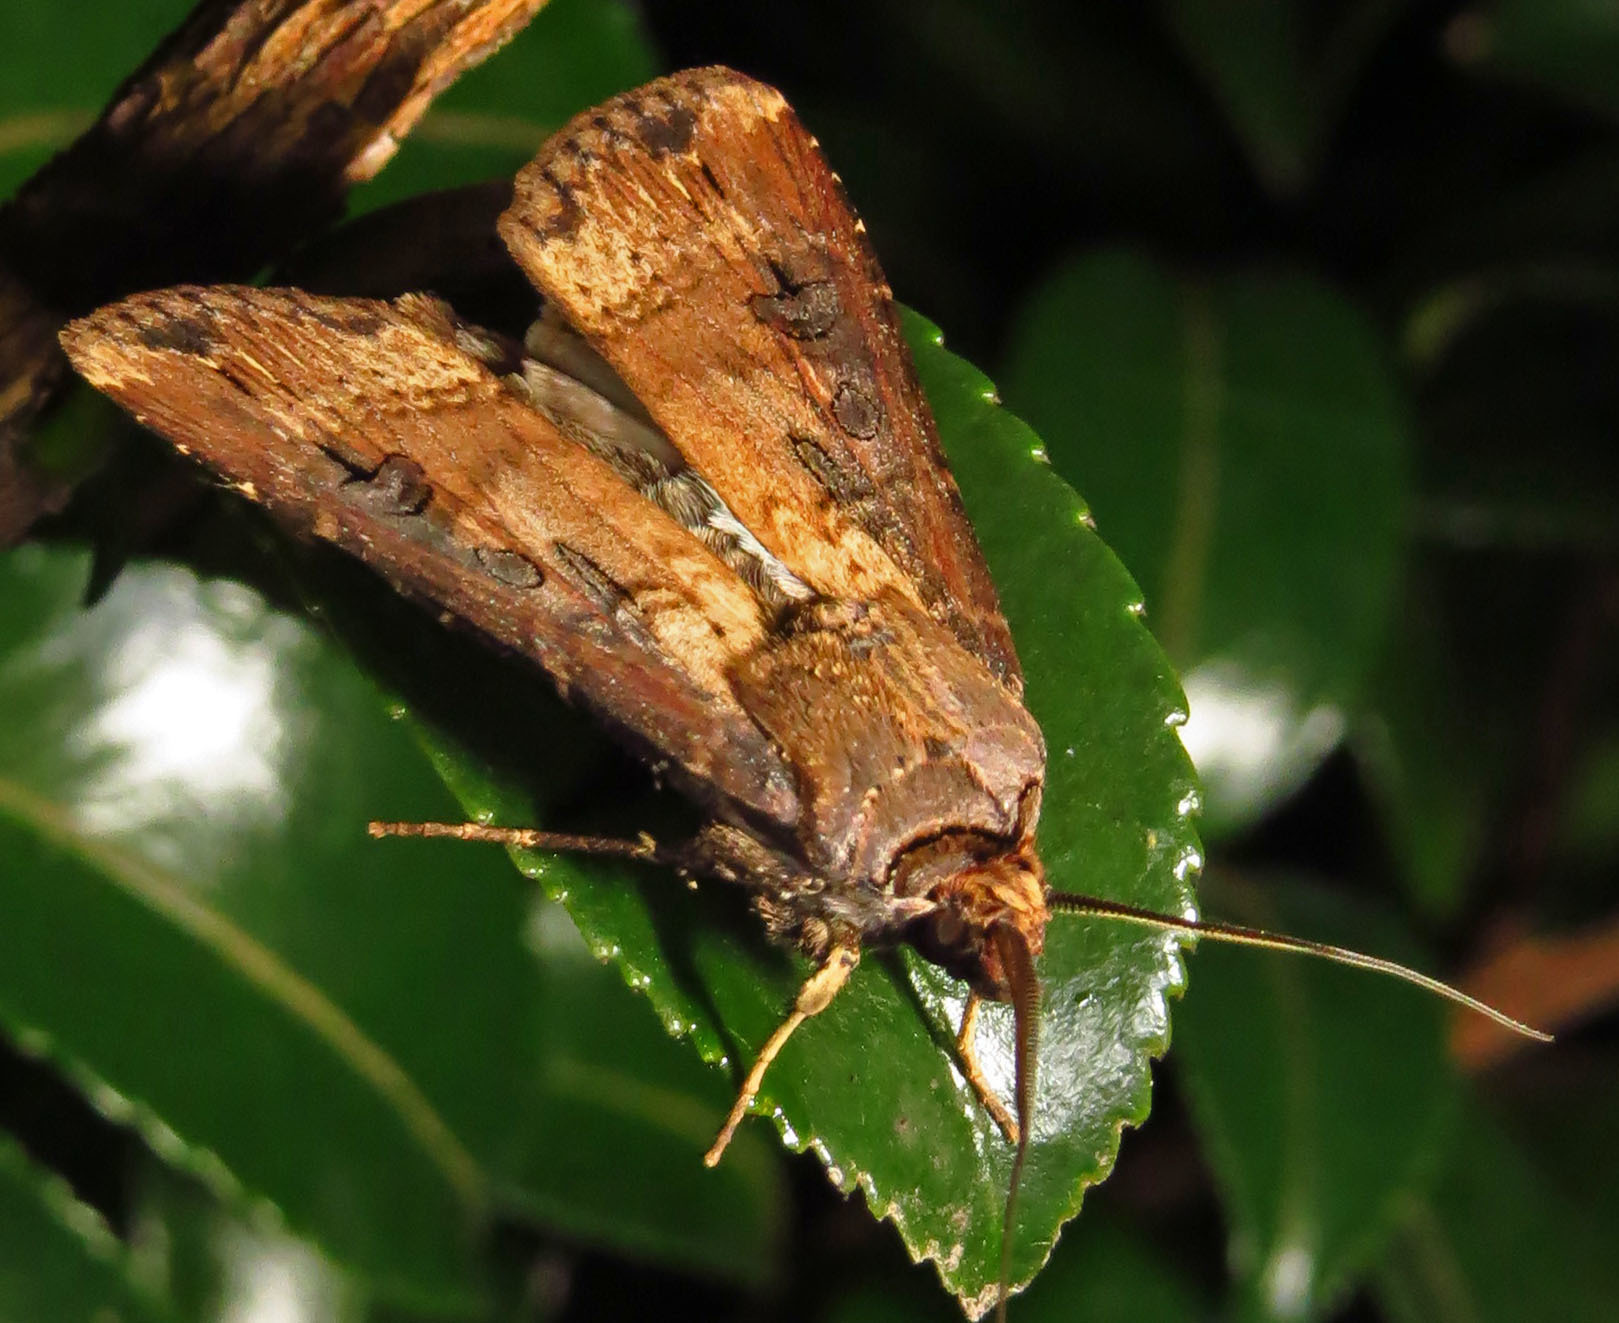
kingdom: Animalia
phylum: Arthropoda
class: Insecta
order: Lepidoptera
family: Noctuidae
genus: Agrotis
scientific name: Agrotis ipsilon
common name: Dark sword-grass
